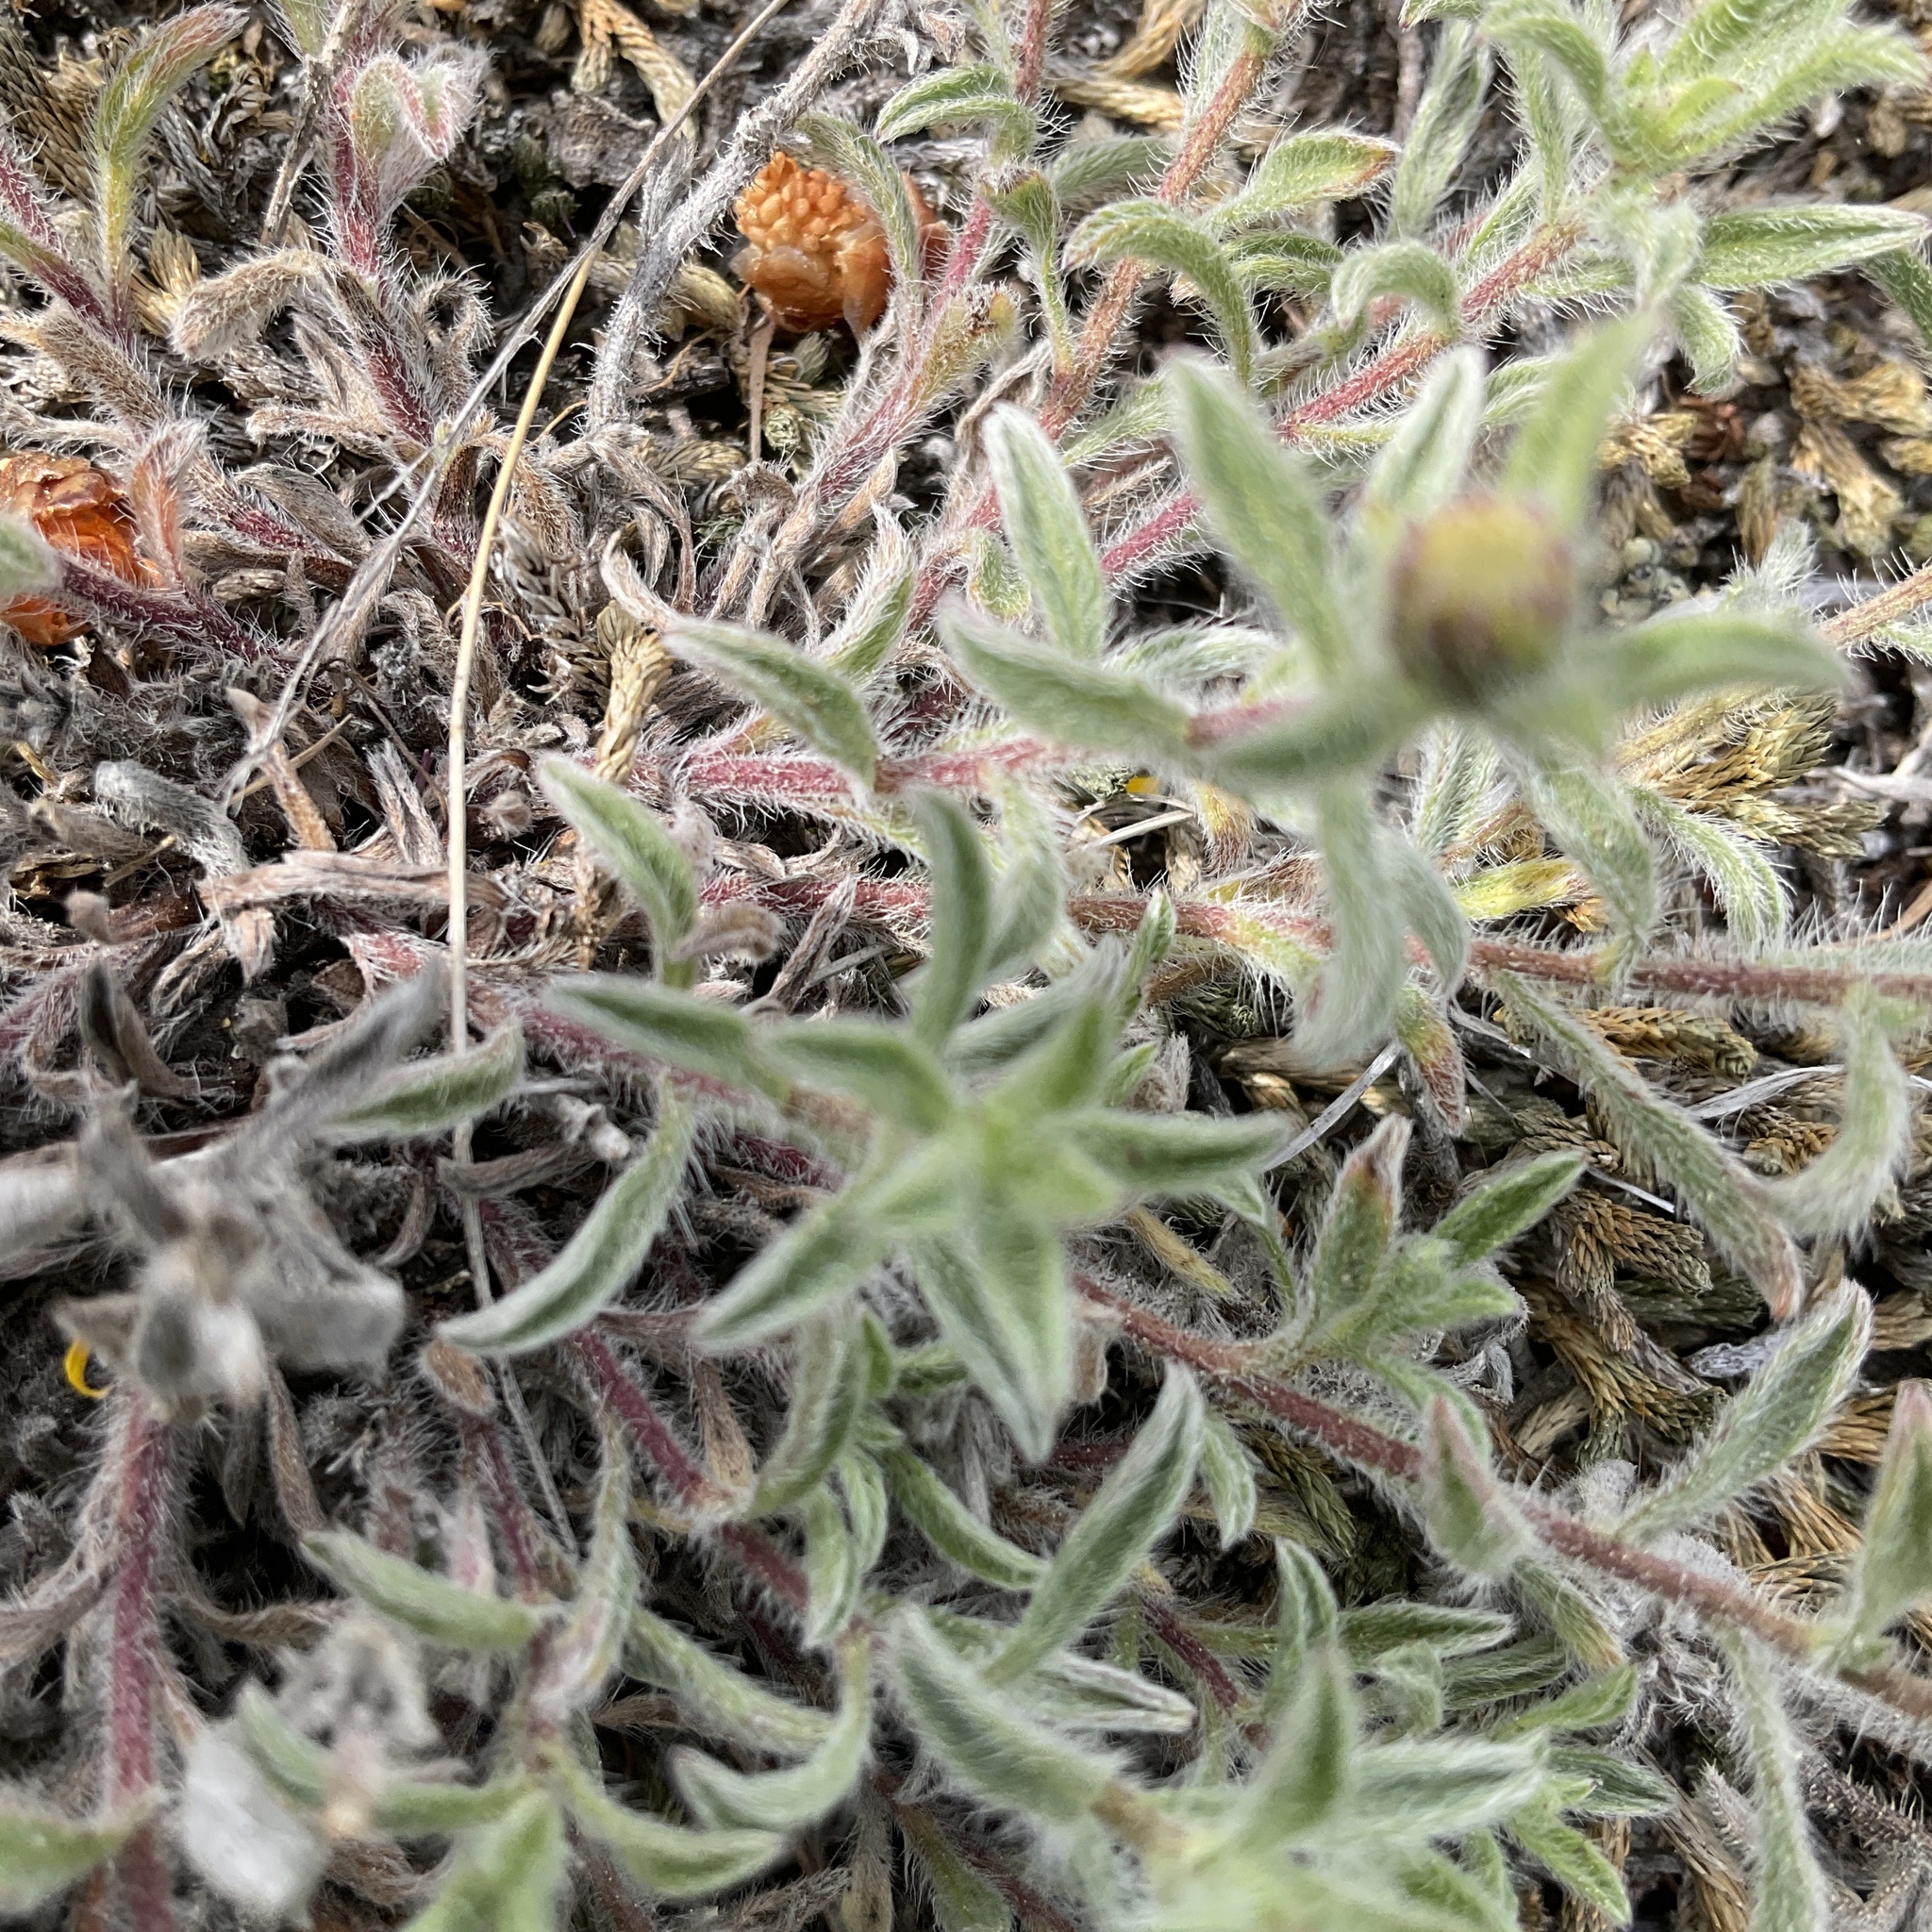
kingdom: Plantae
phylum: Tracheophyta
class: Magnoliopsida
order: Asterales
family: Asteraceae
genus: Heterotheca
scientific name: Heterotheca villosa
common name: Hairy false goldenaster
